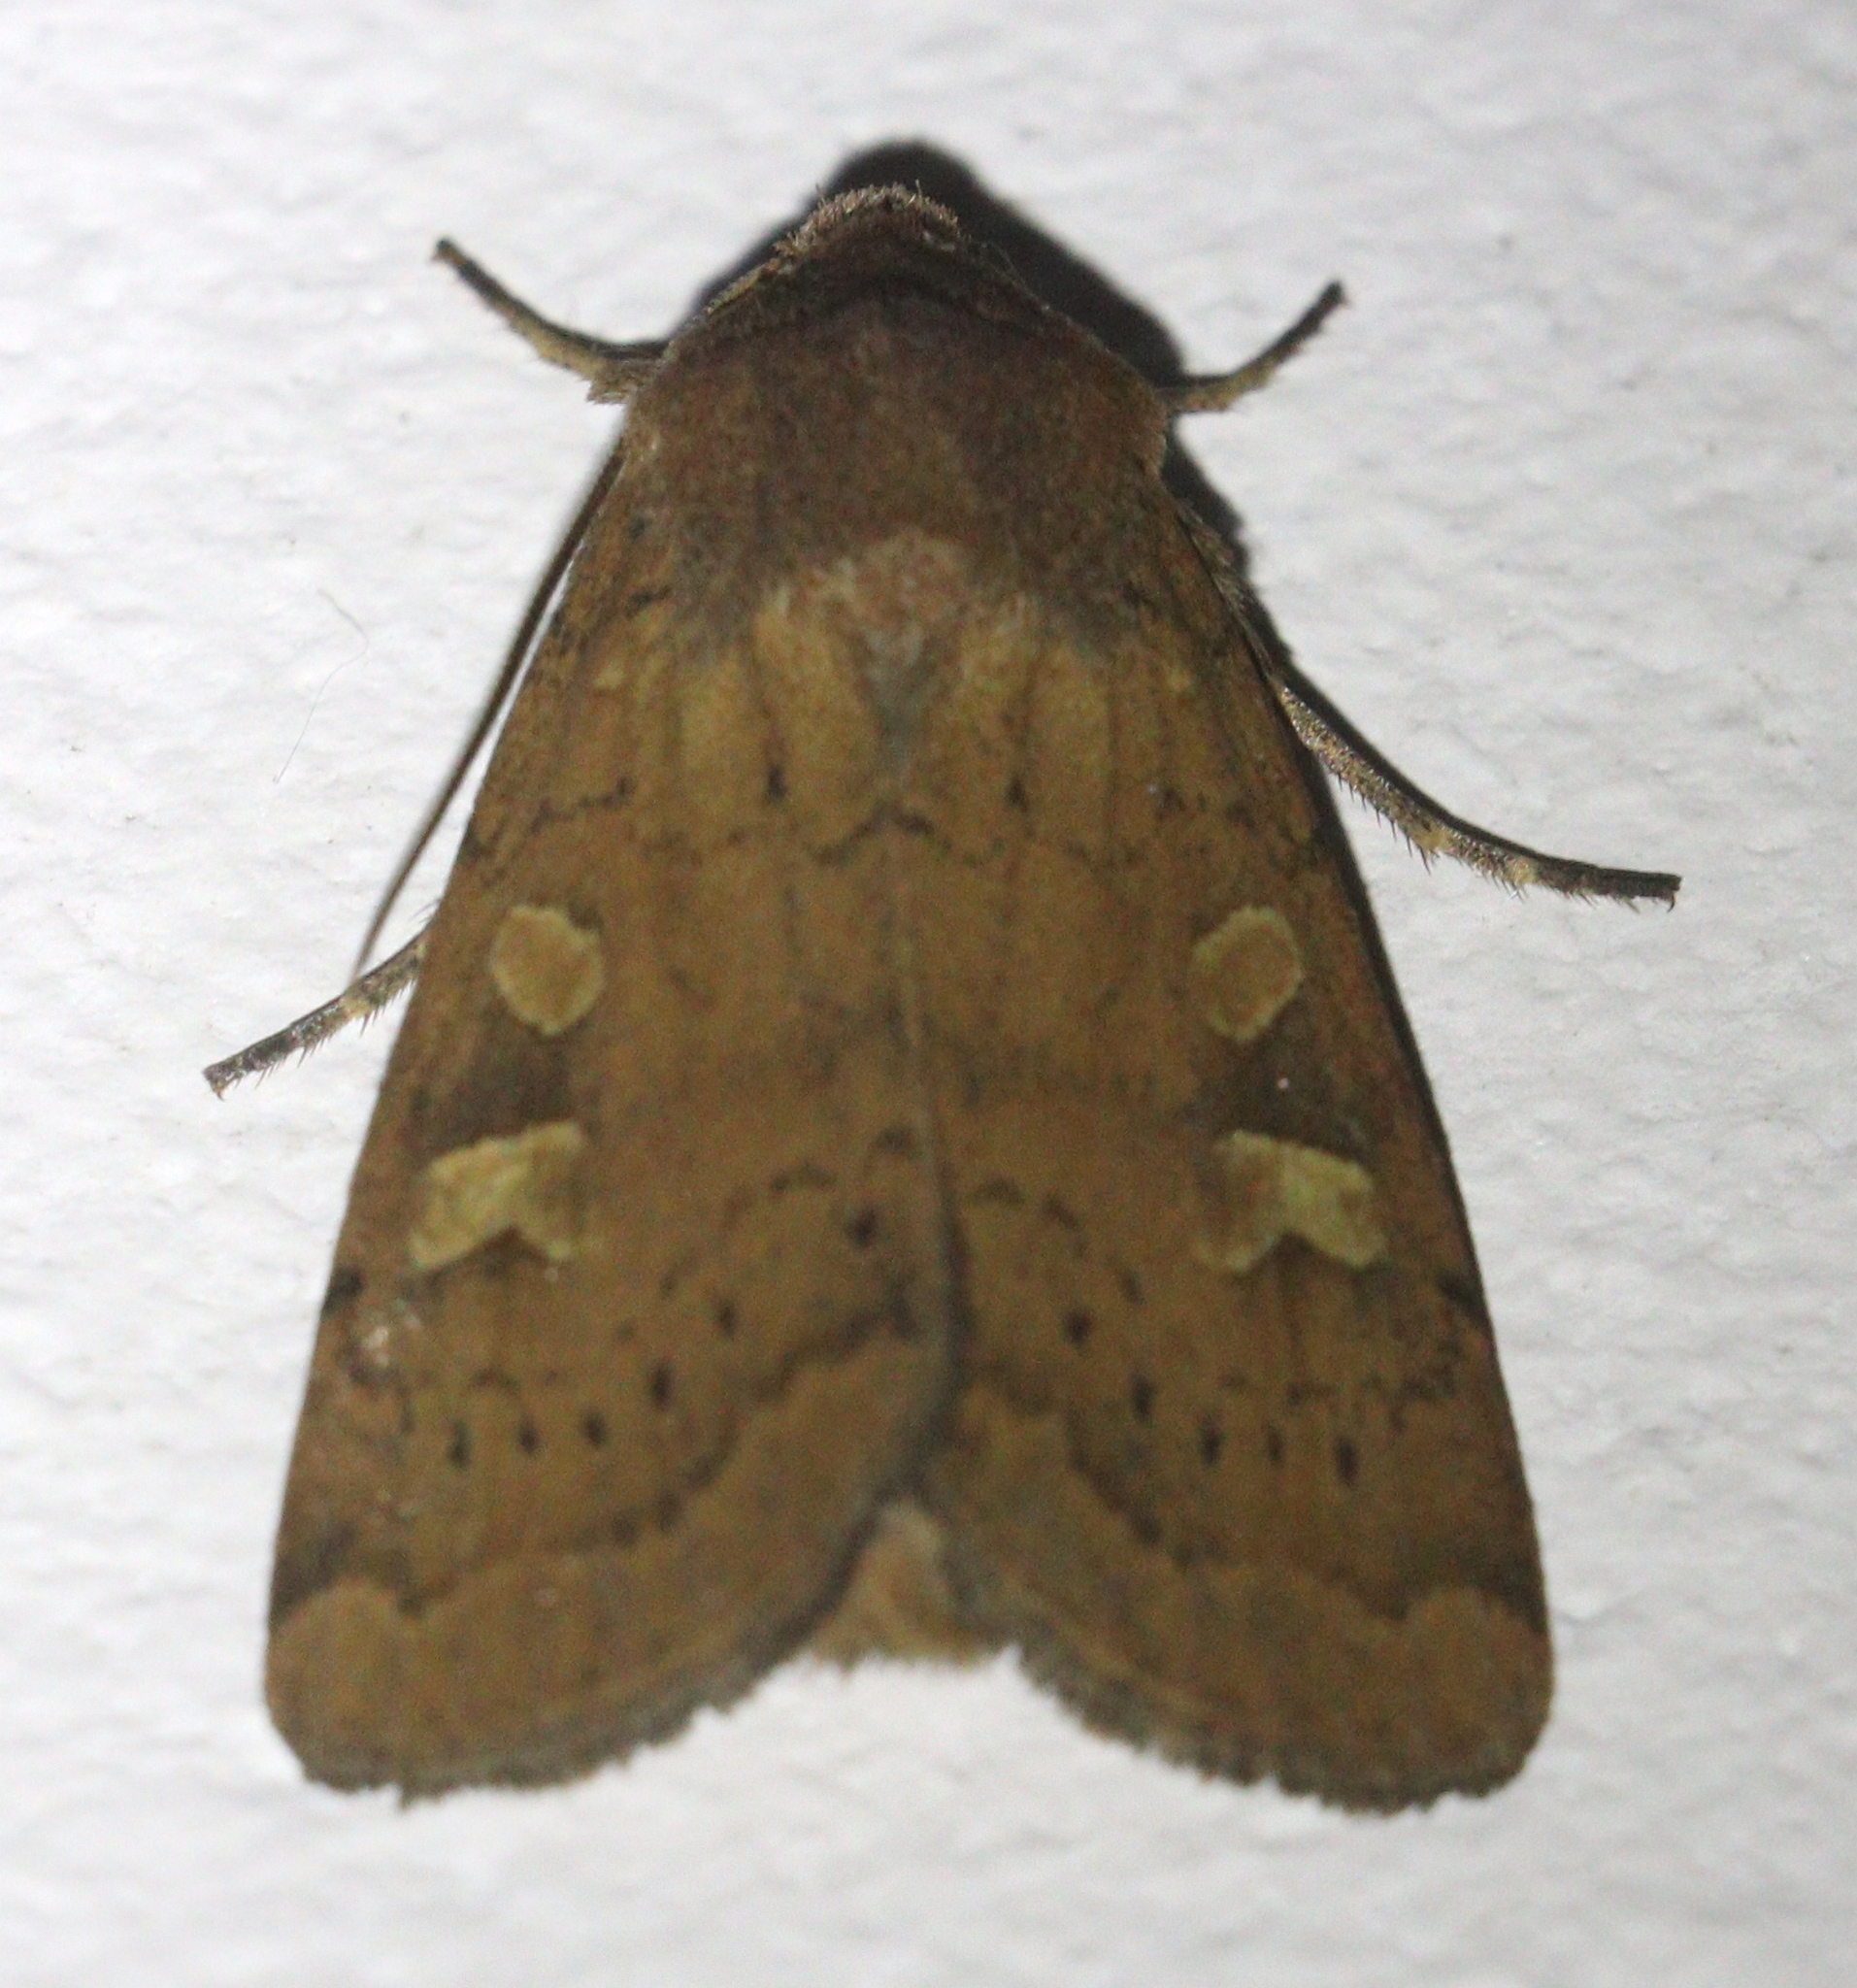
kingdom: Animalia
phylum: Arthropoda
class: Insecta
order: Lepidoptera
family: Noctuidae
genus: Xestia
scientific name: Xestia xanthographa
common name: Square-spot rustic
